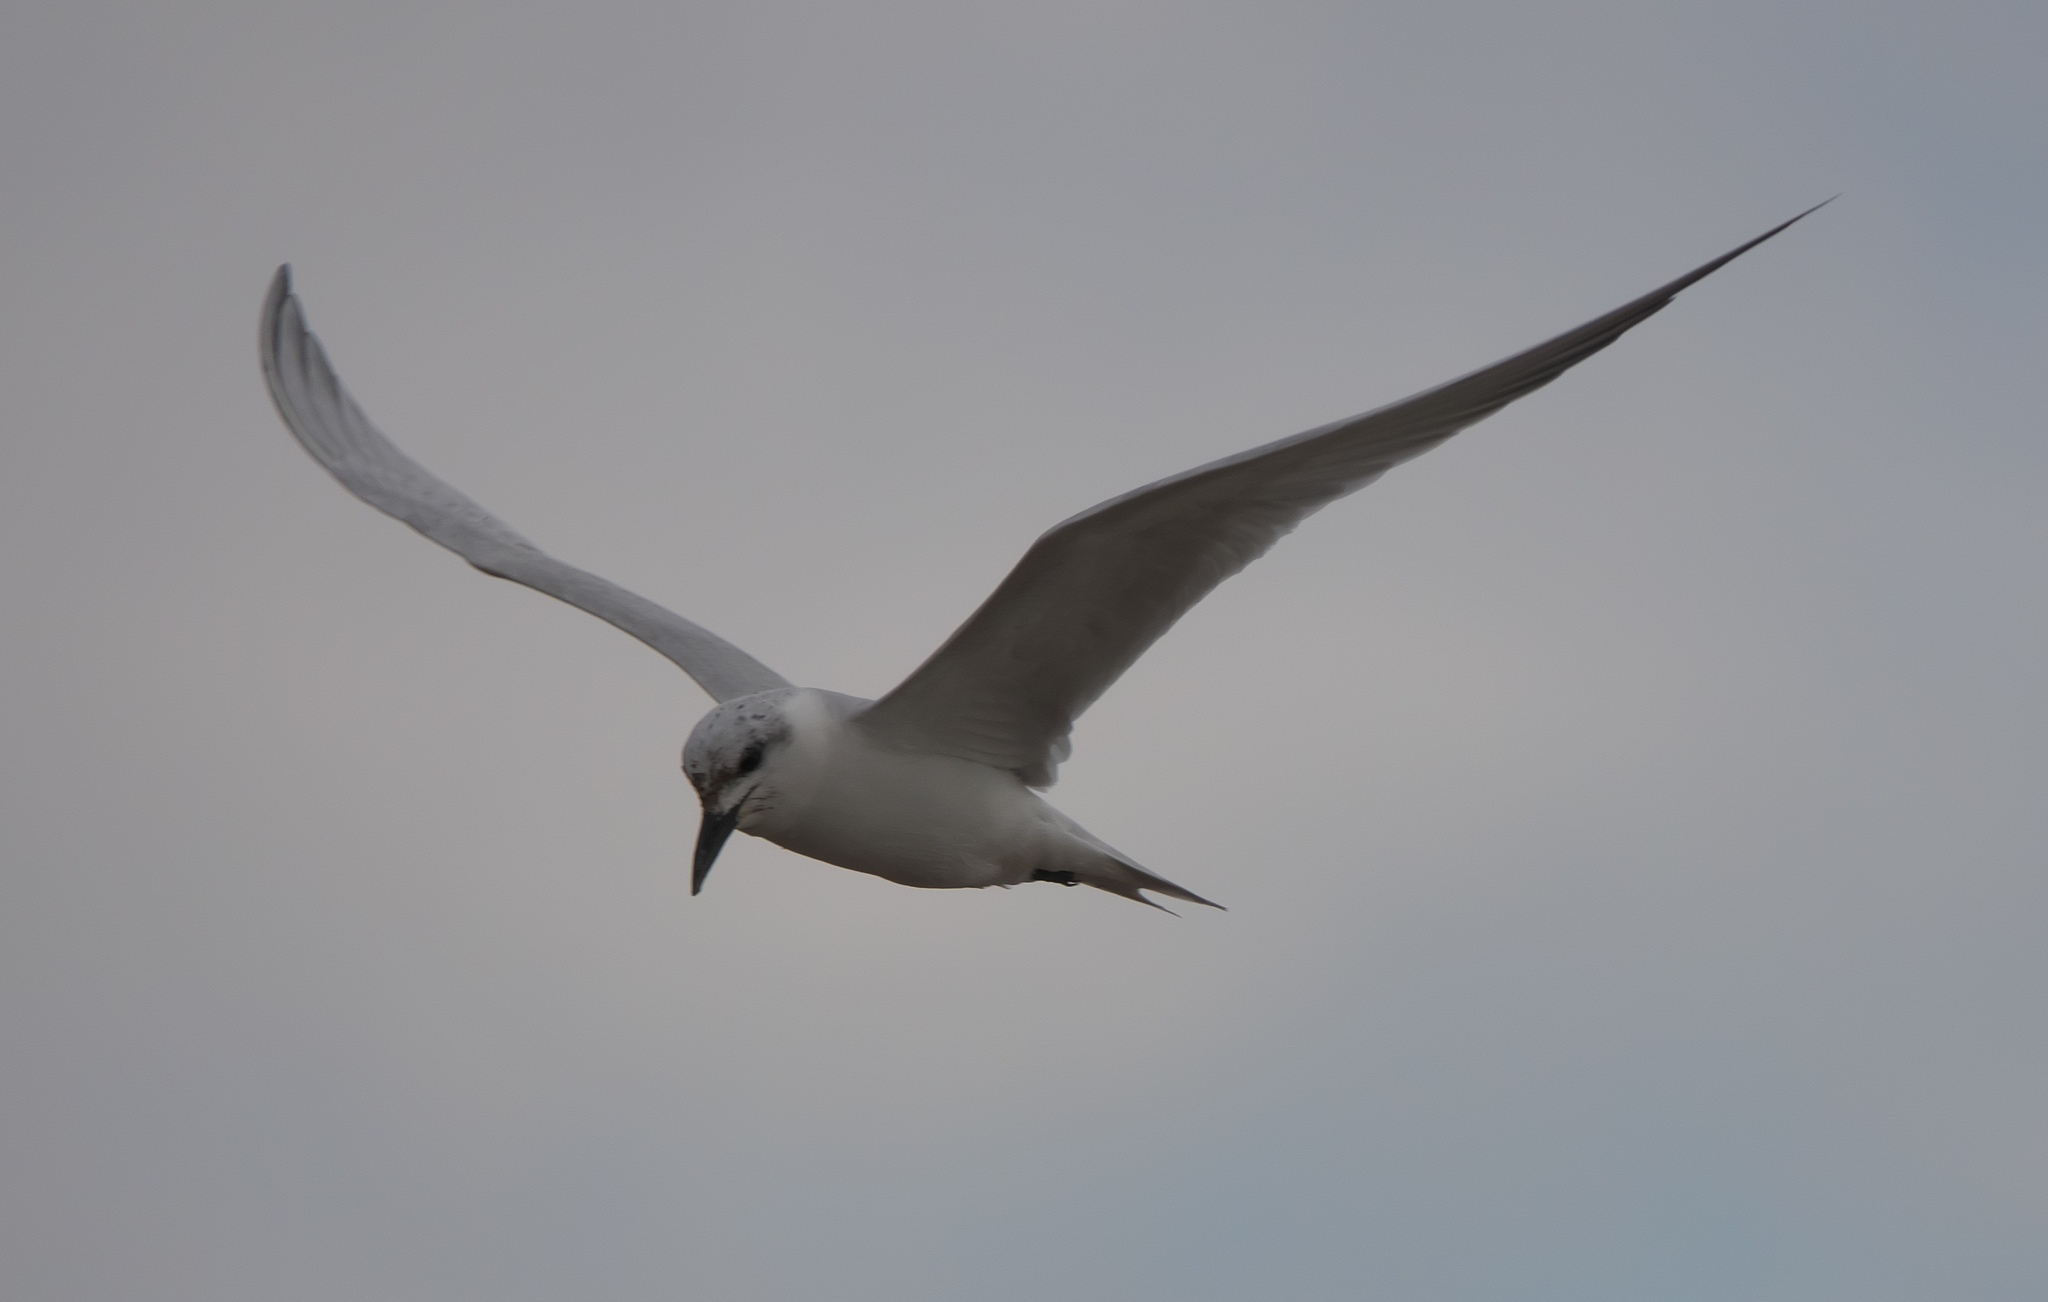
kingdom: Animalia
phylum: Chordata
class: Aves
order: Charadriiformes
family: Laridae
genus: Gelochelidon
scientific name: Gelochelidon nilotica
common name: Gull-billed tern
